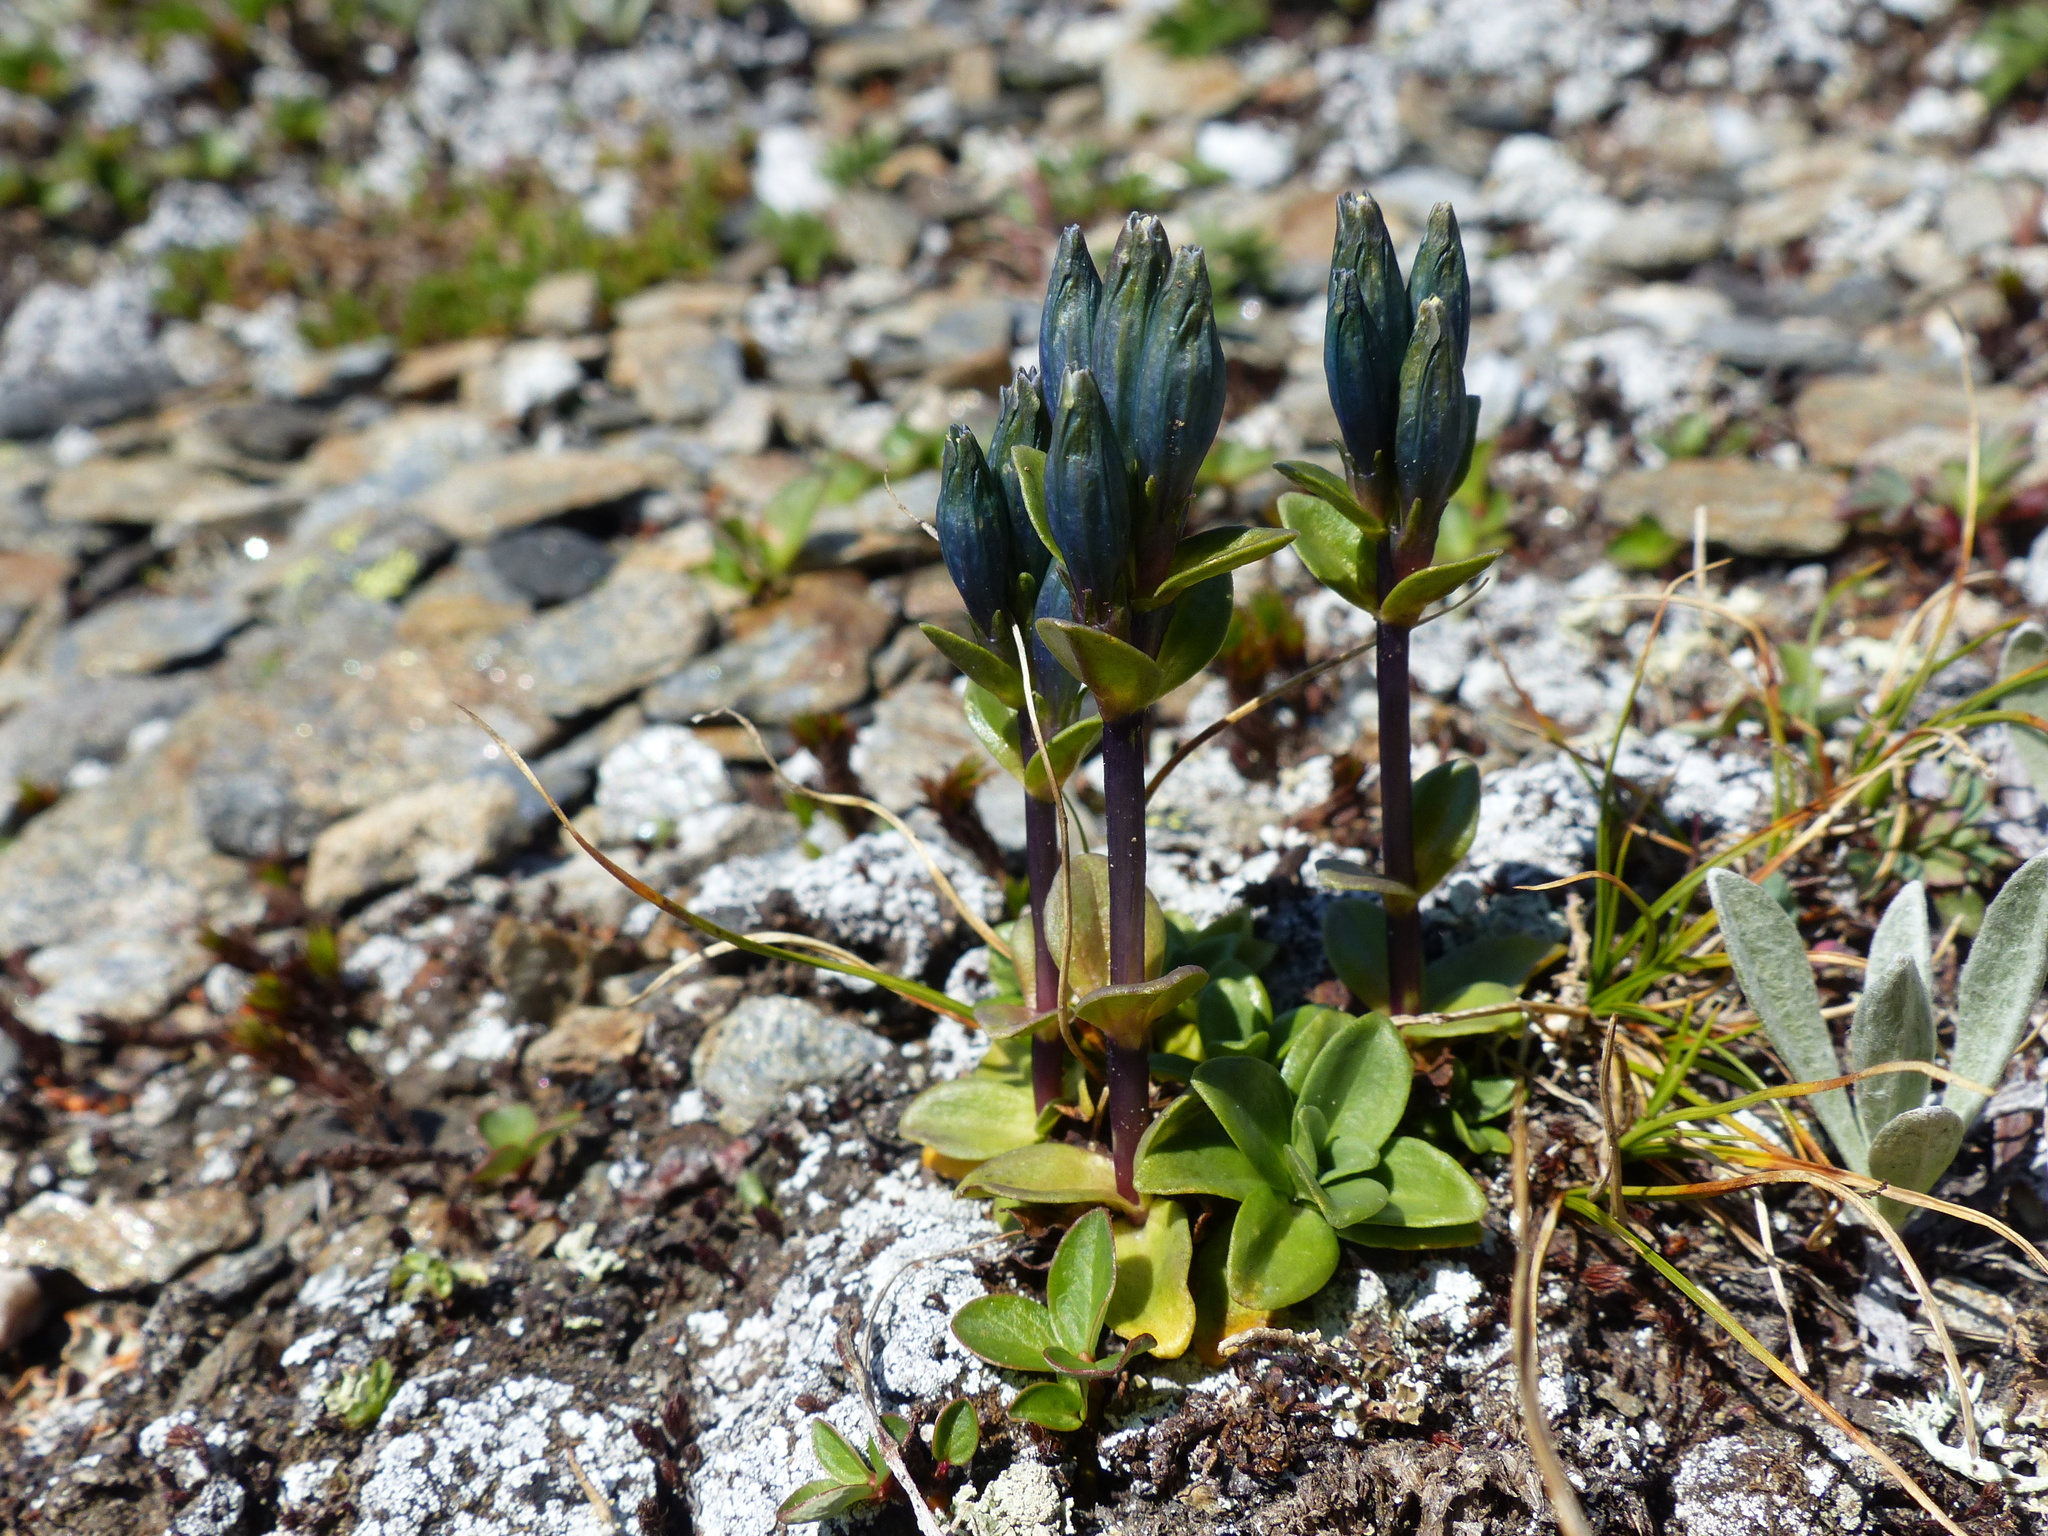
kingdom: Plantae
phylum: Tracheophyta
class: Magnoliopsida
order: Gentianales
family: Gentianaceae
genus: Gentiana
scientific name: Gentiana glauca
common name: Alpine gentian
